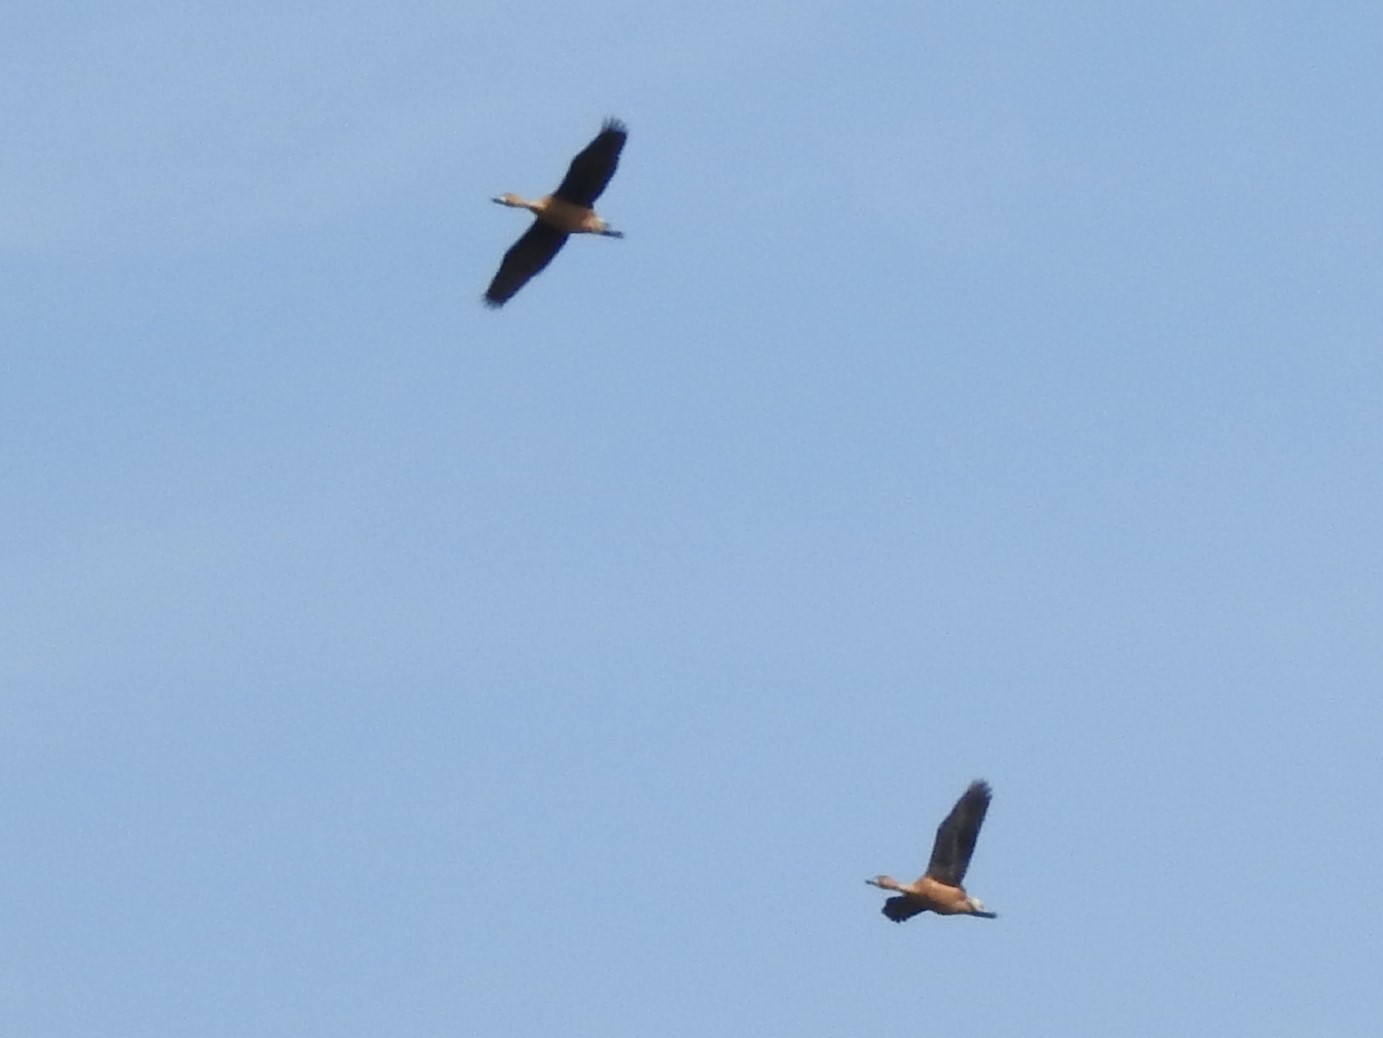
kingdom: Animalia
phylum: Chordata
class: Aves
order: Anseriformes
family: Anatidae
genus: Dendrocygna
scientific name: Dendrocygna bicolor
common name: Fulvous whistling duck
